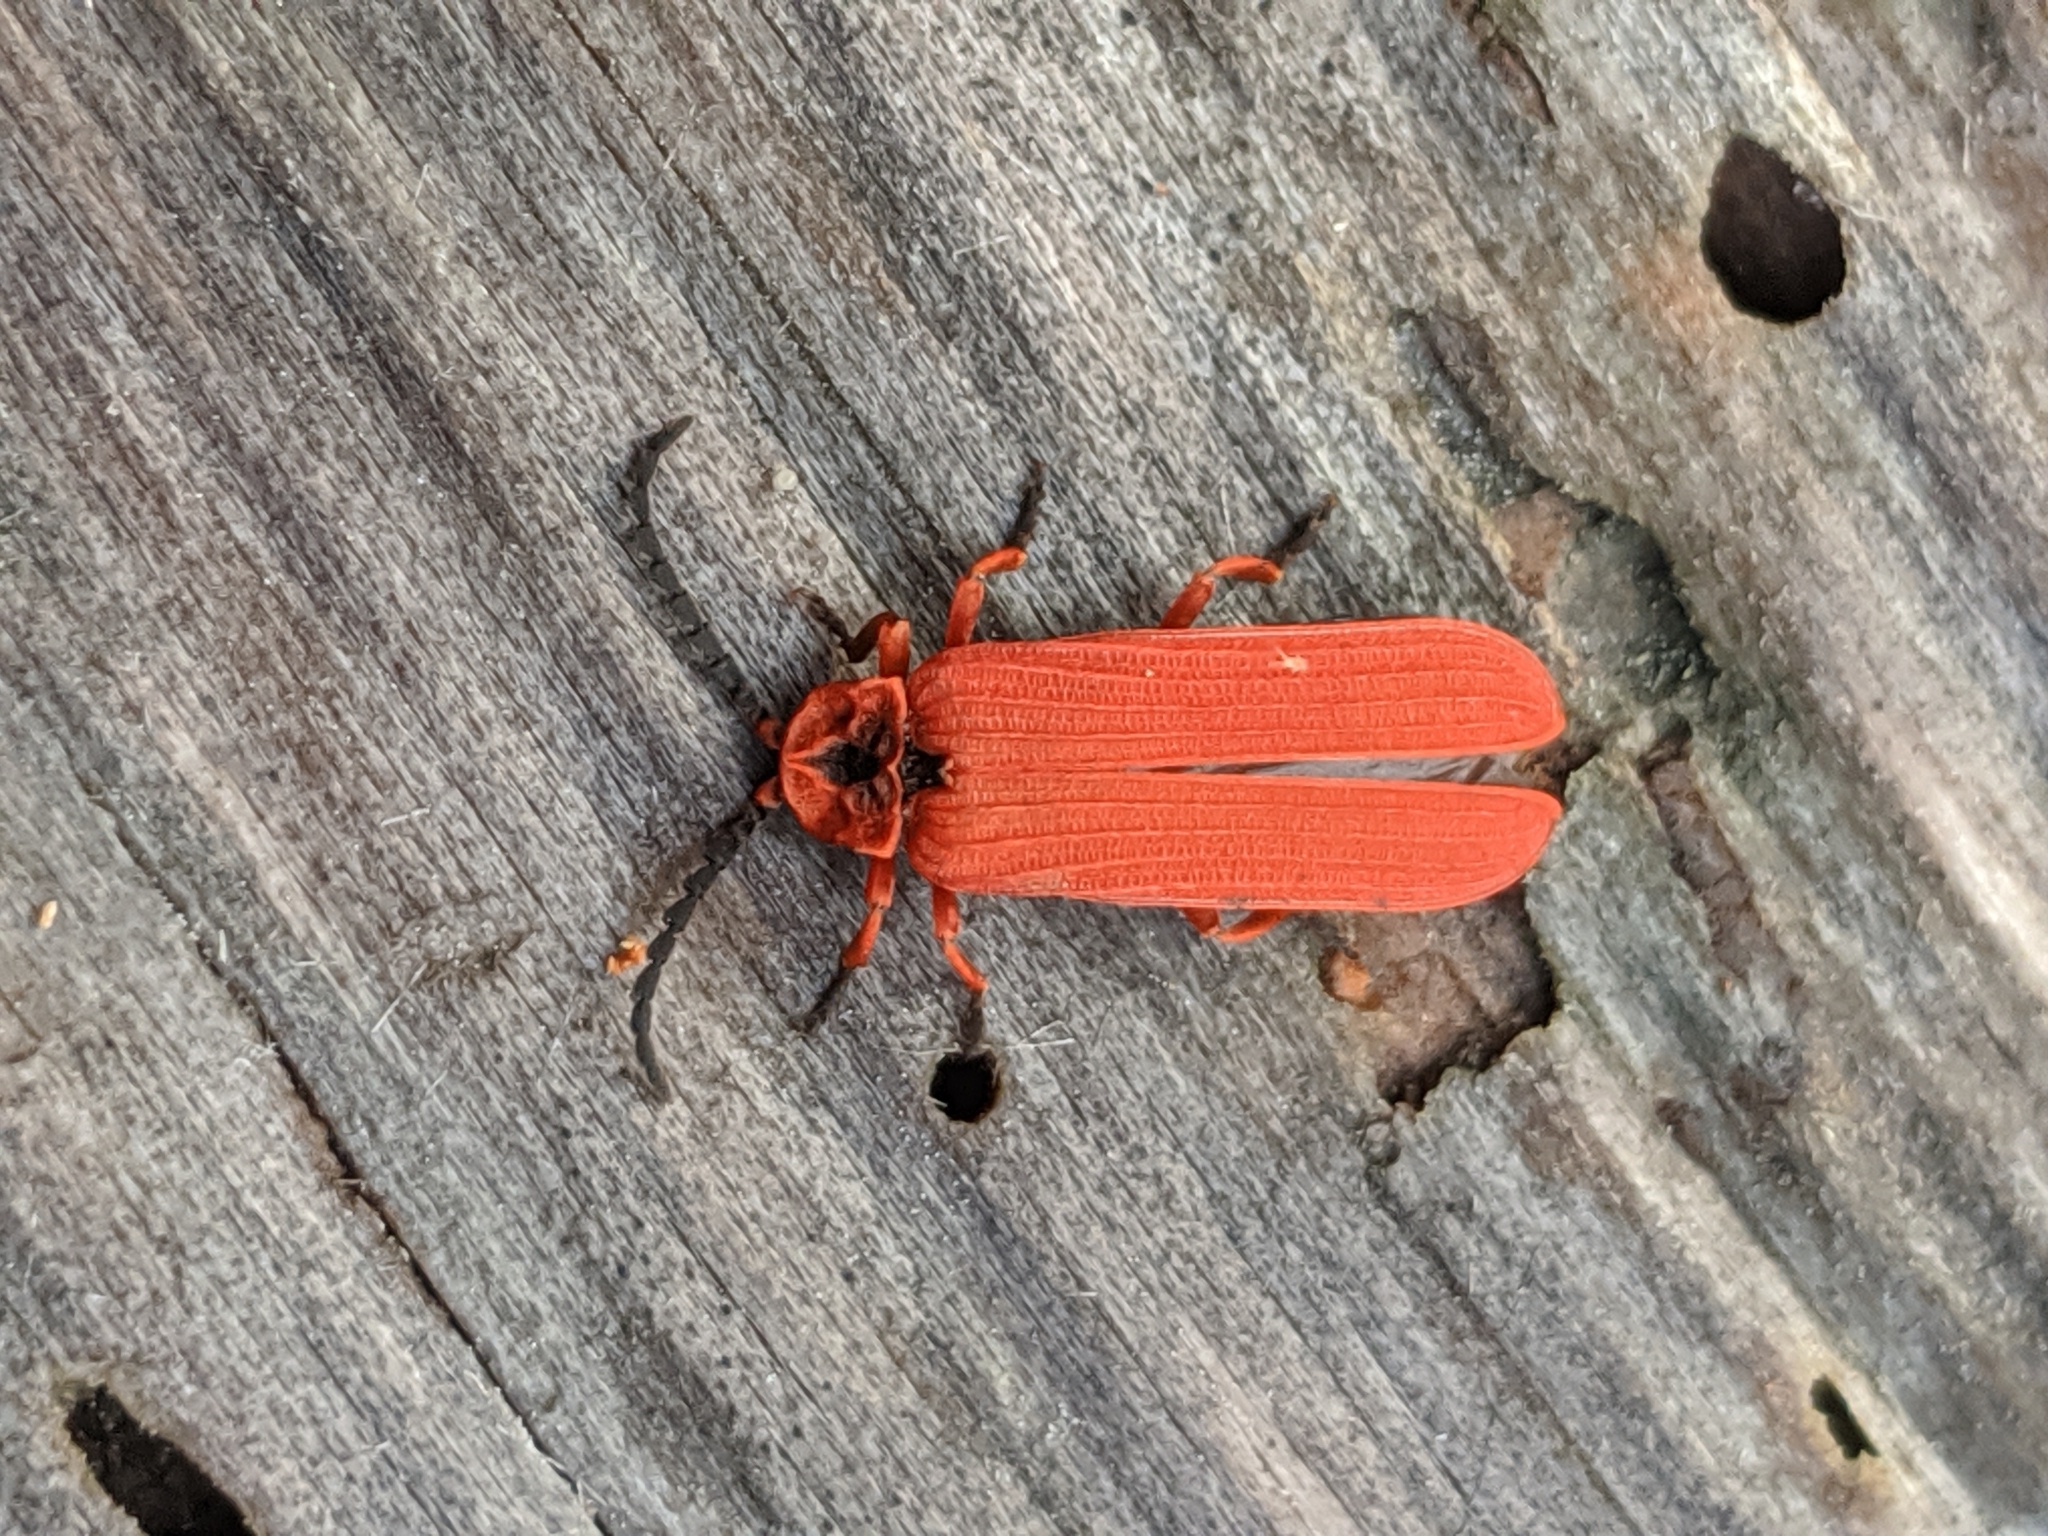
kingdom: Animalia
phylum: Arthropoda
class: Insecta
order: Coleoptera
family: Lycidae
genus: Dictyoptera
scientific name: Dictyoptera simplicipes
